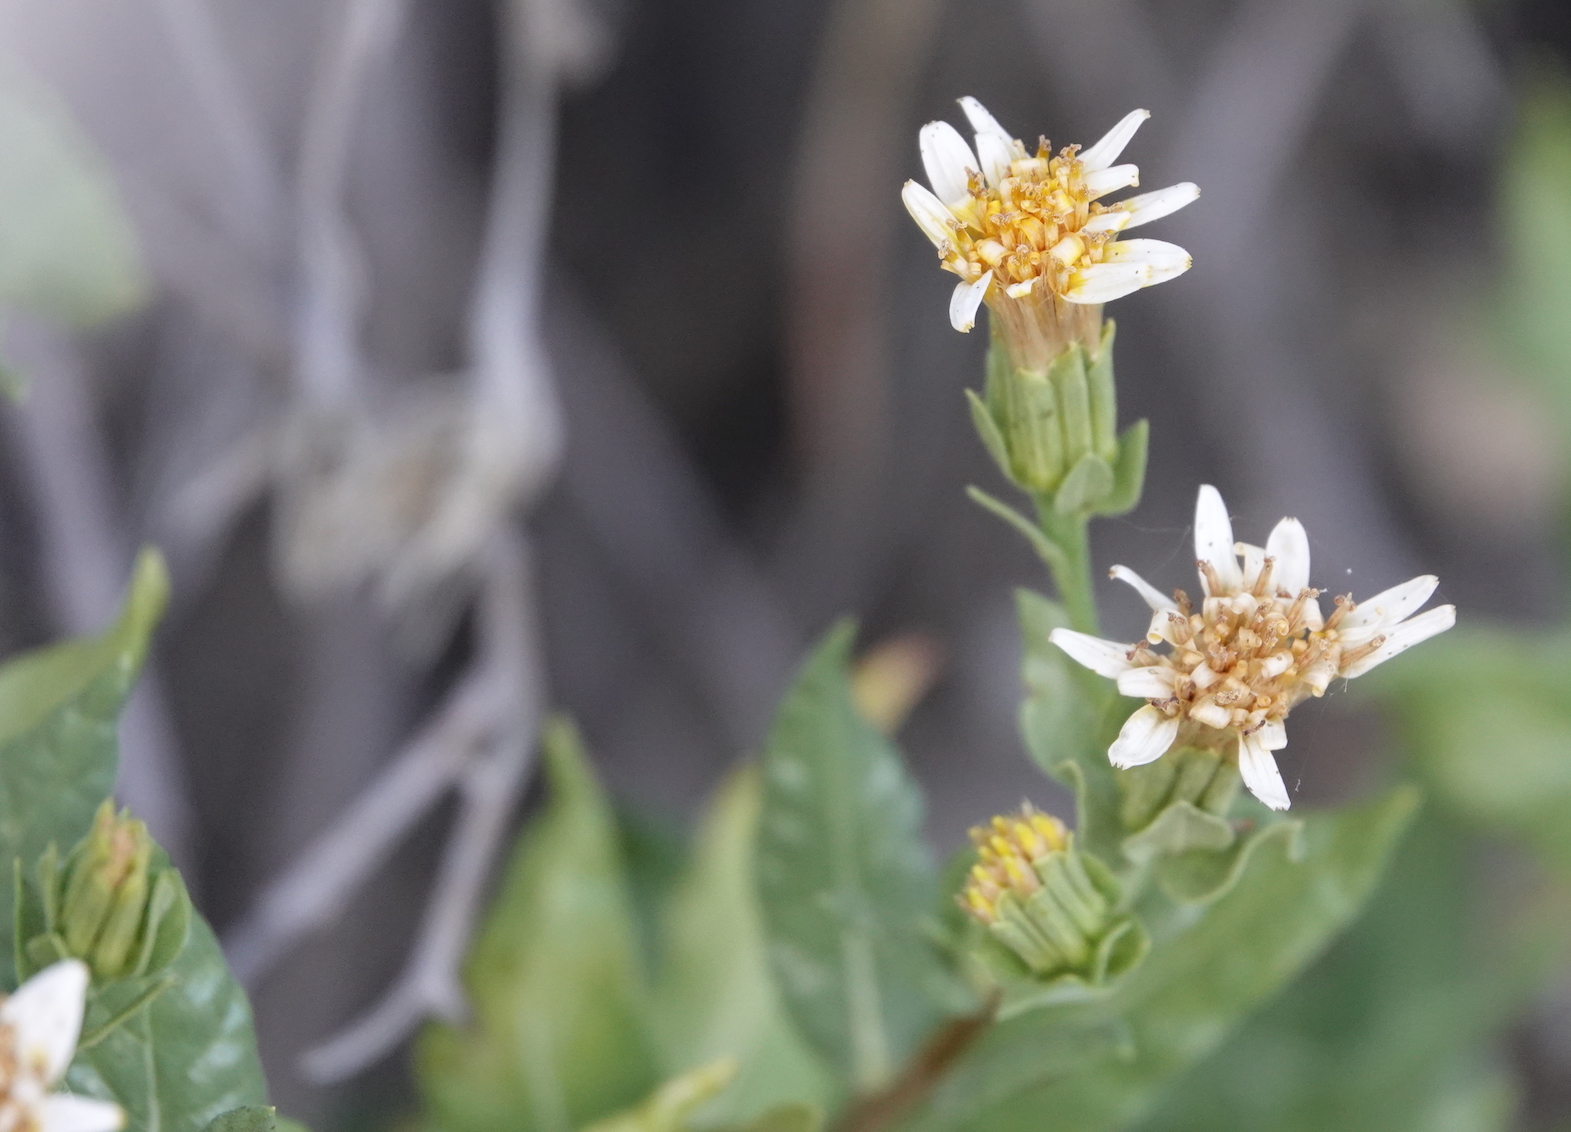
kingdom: Plantae
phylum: Tracheophyta
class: Magnoliopsida
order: Asterales
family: Asteraceae
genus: Trixis
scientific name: Trixis californica
